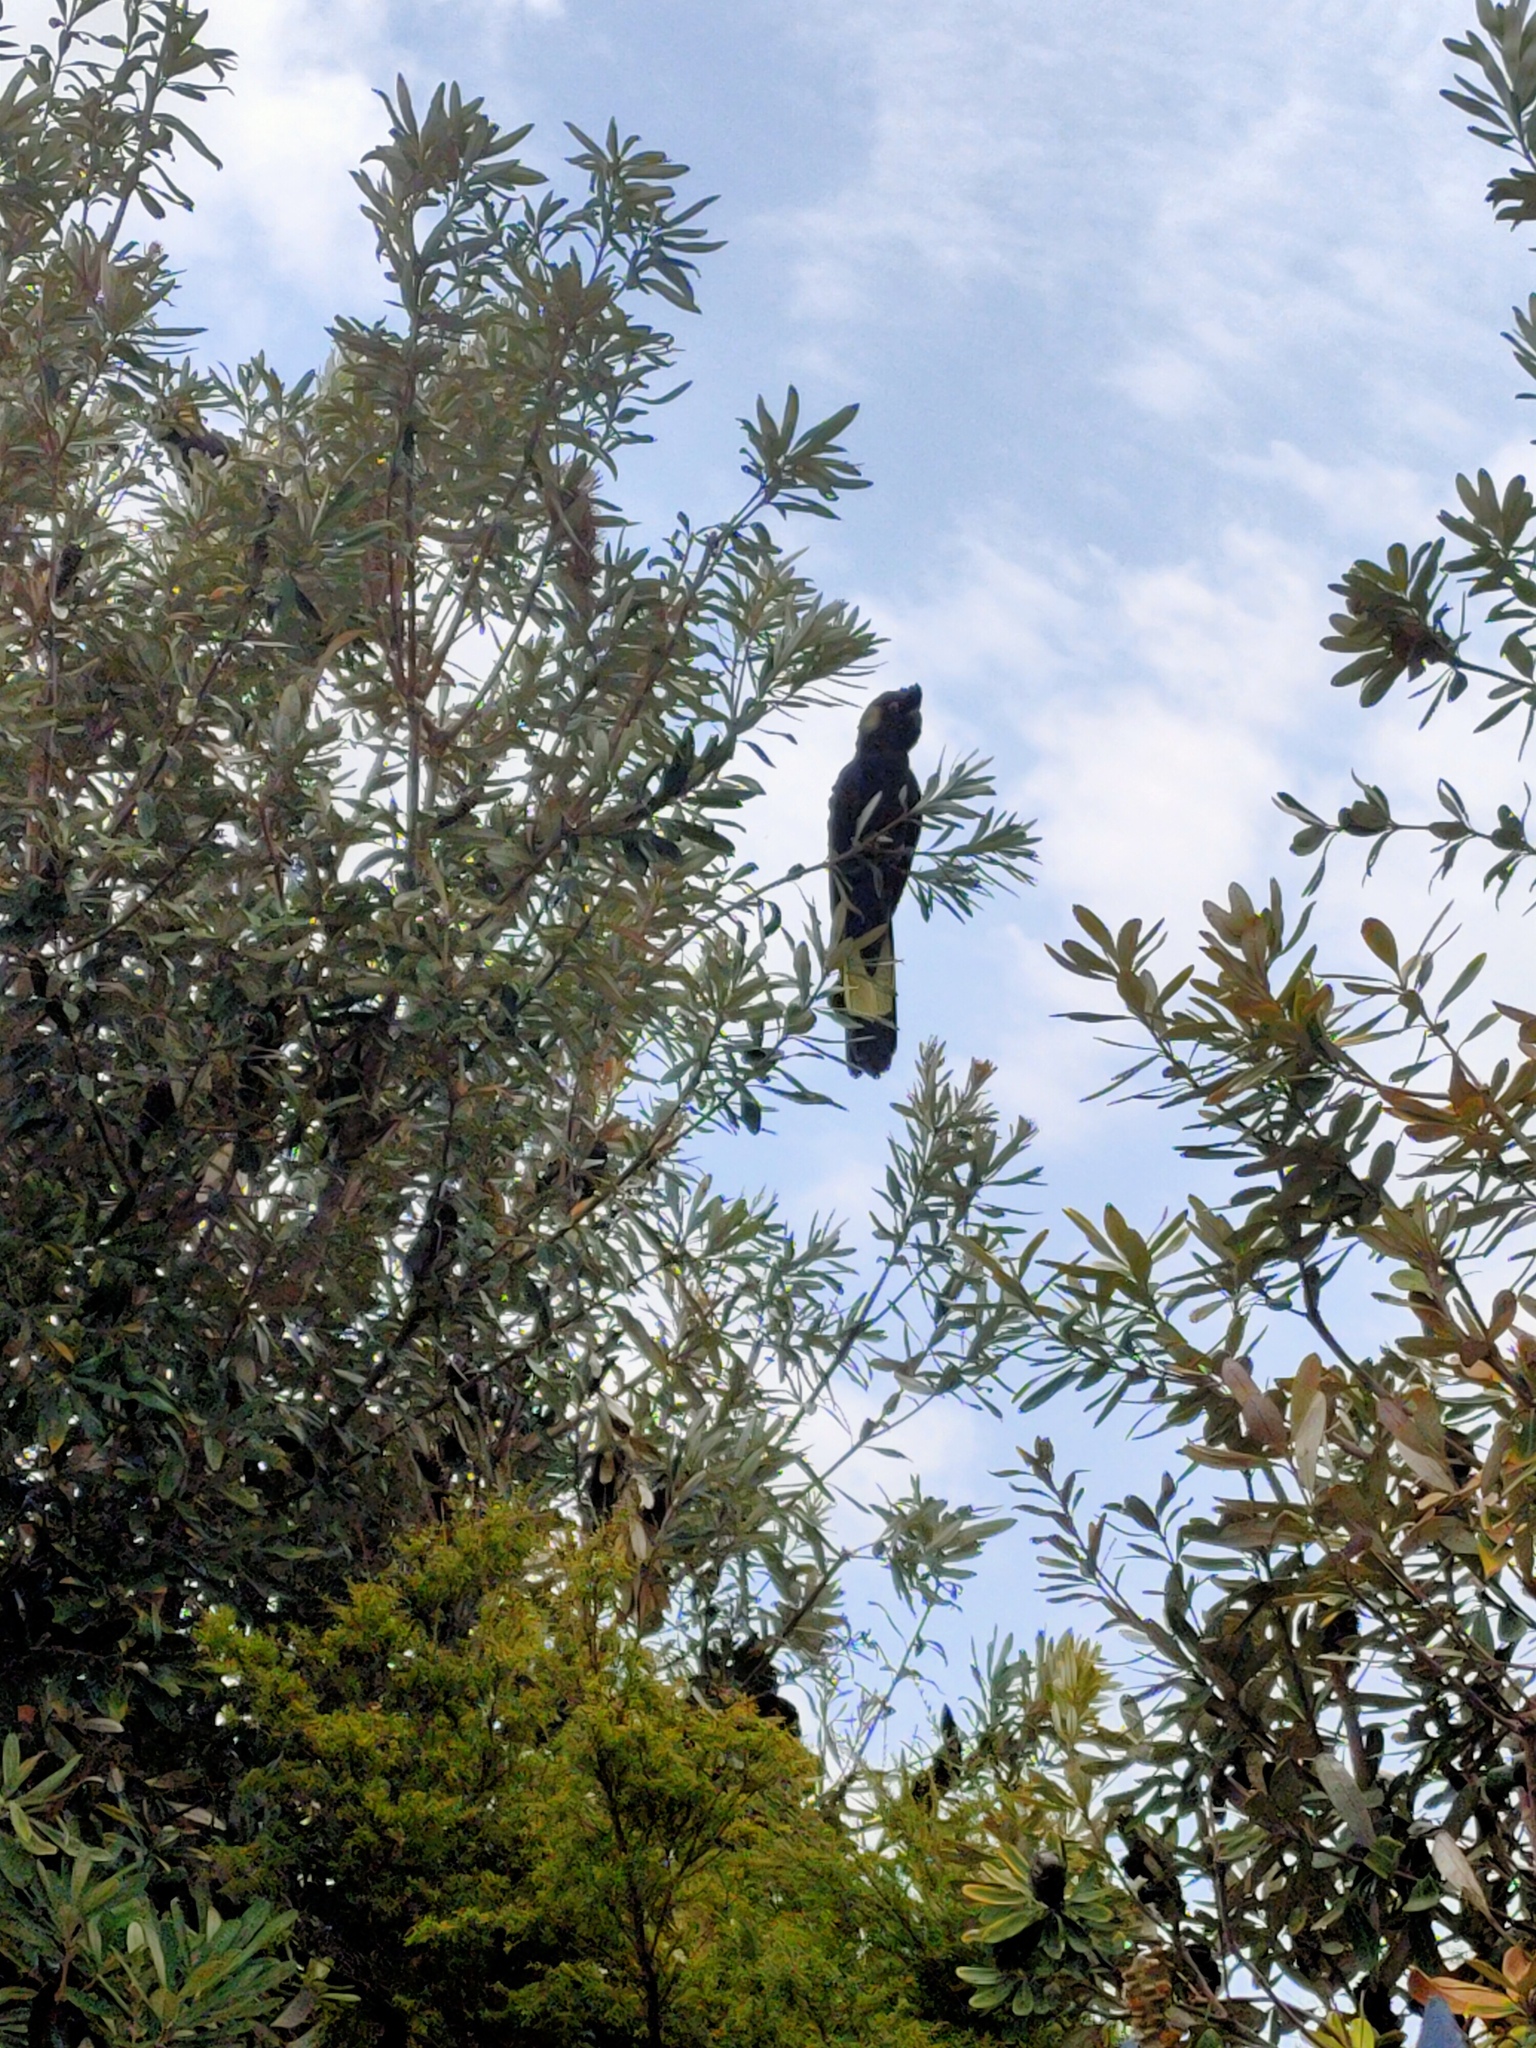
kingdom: Animalia
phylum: Chordata
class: Aves
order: Psittaciformes
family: Cacatuidae
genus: Zanda
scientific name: Zanda funerea
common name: Yellow-tailed black-cockatoo
